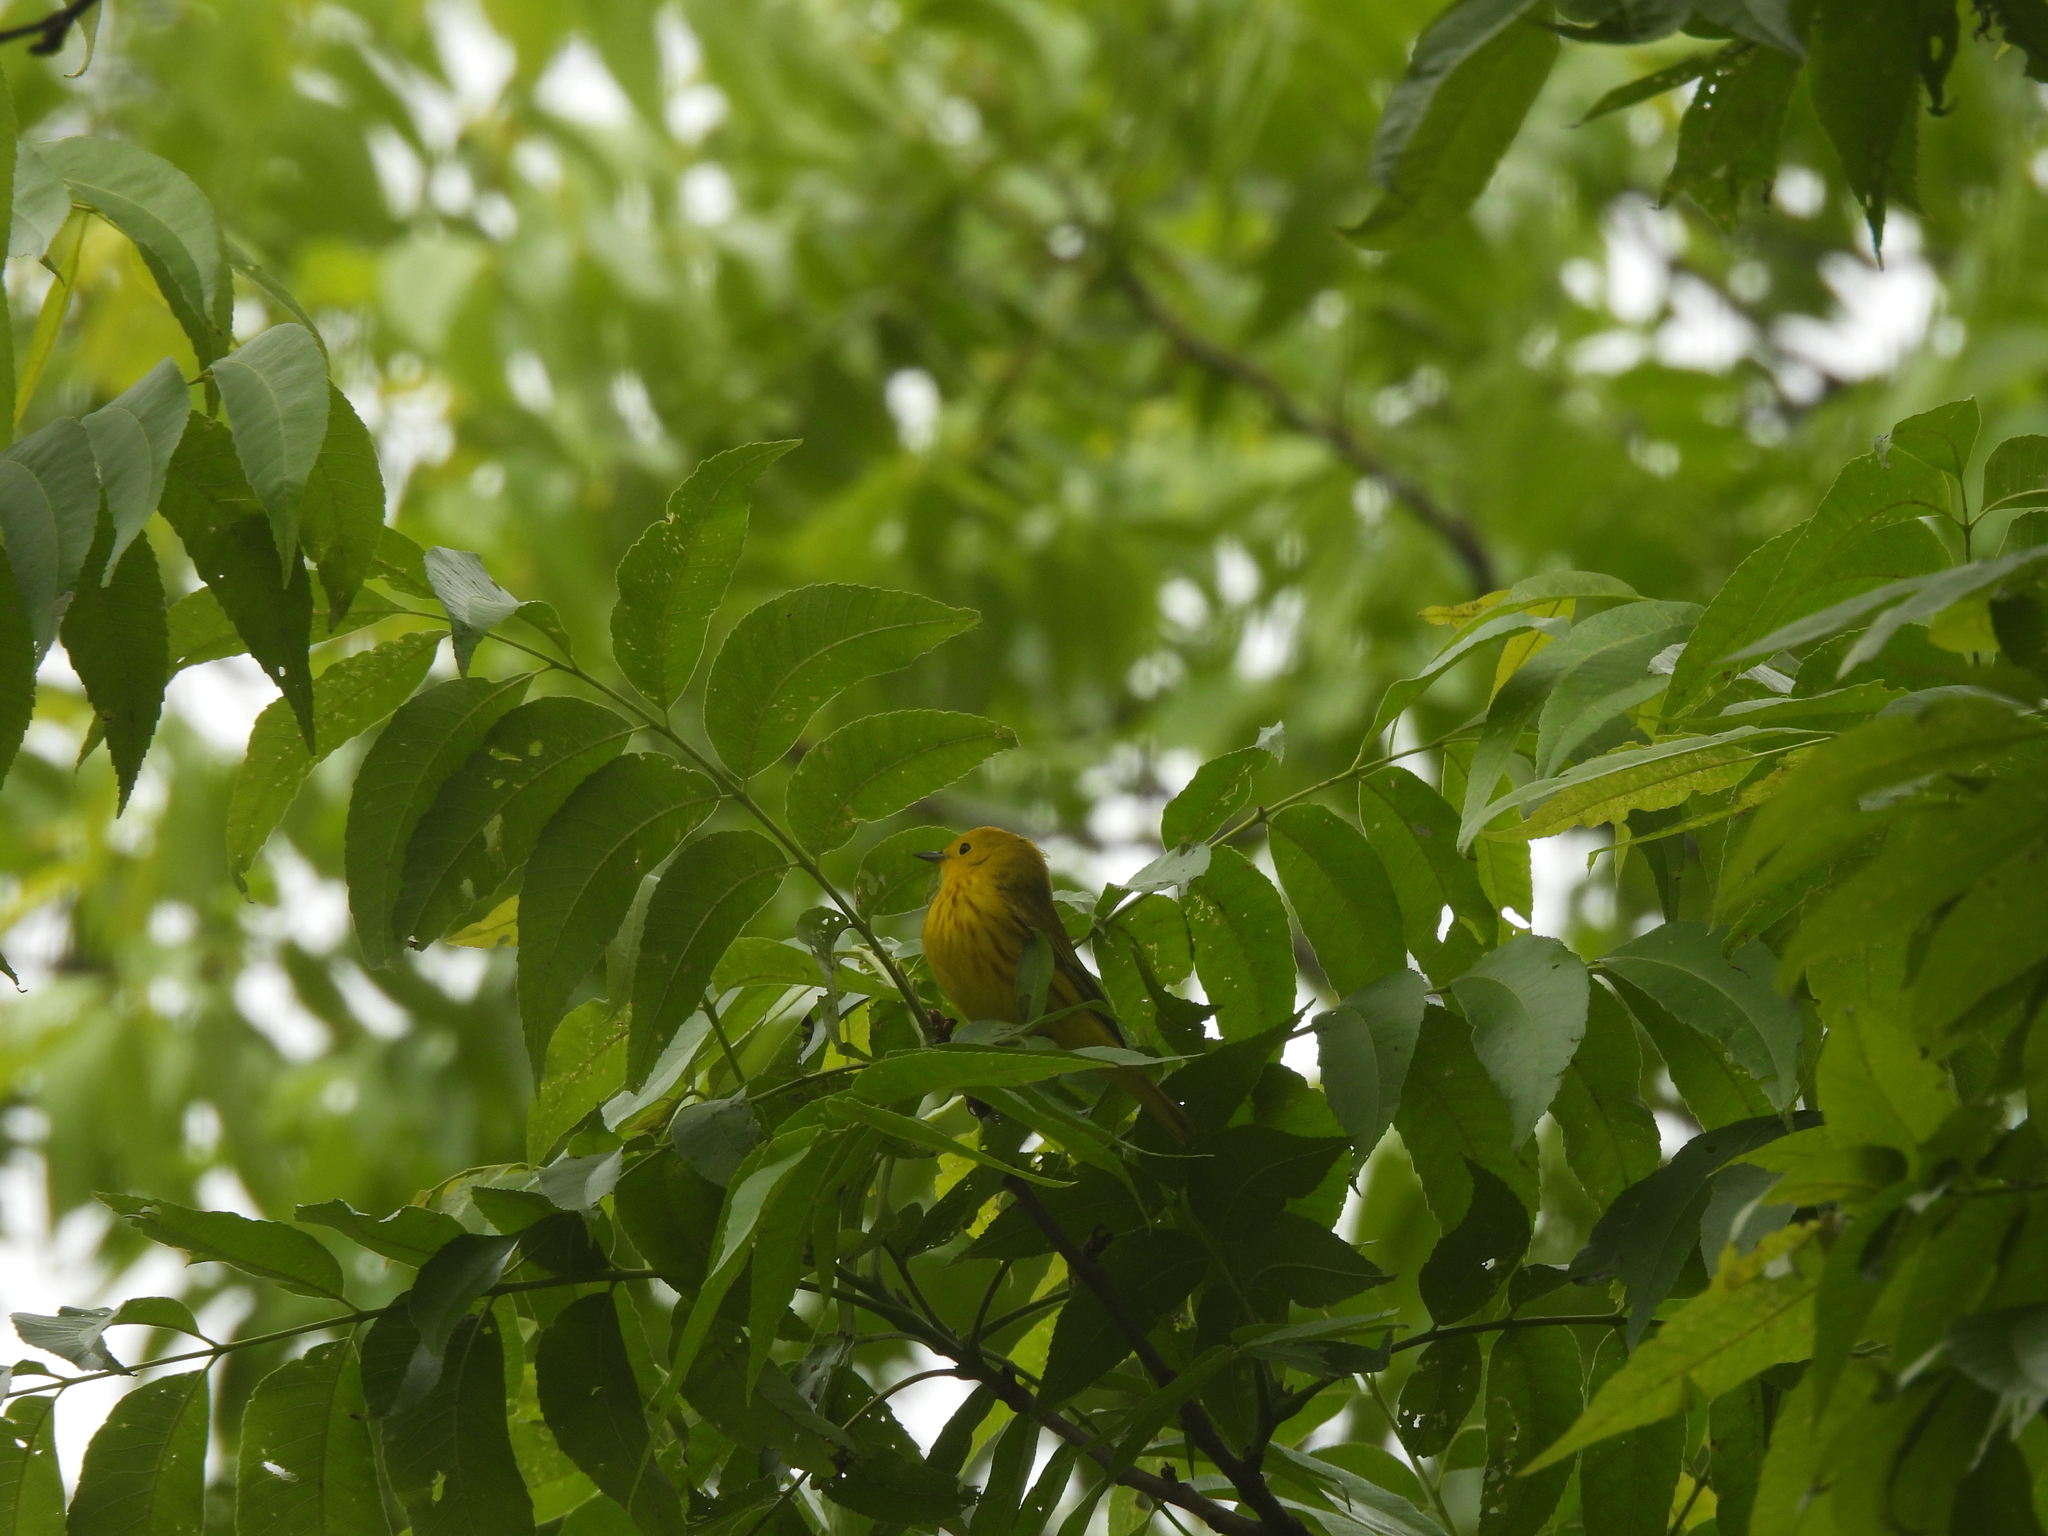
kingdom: Animalia
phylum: Chordata
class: Aves
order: Passeriformes
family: Parulidae
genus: Setophaga
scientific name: Setophaga petechia
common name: Yellow warbler
